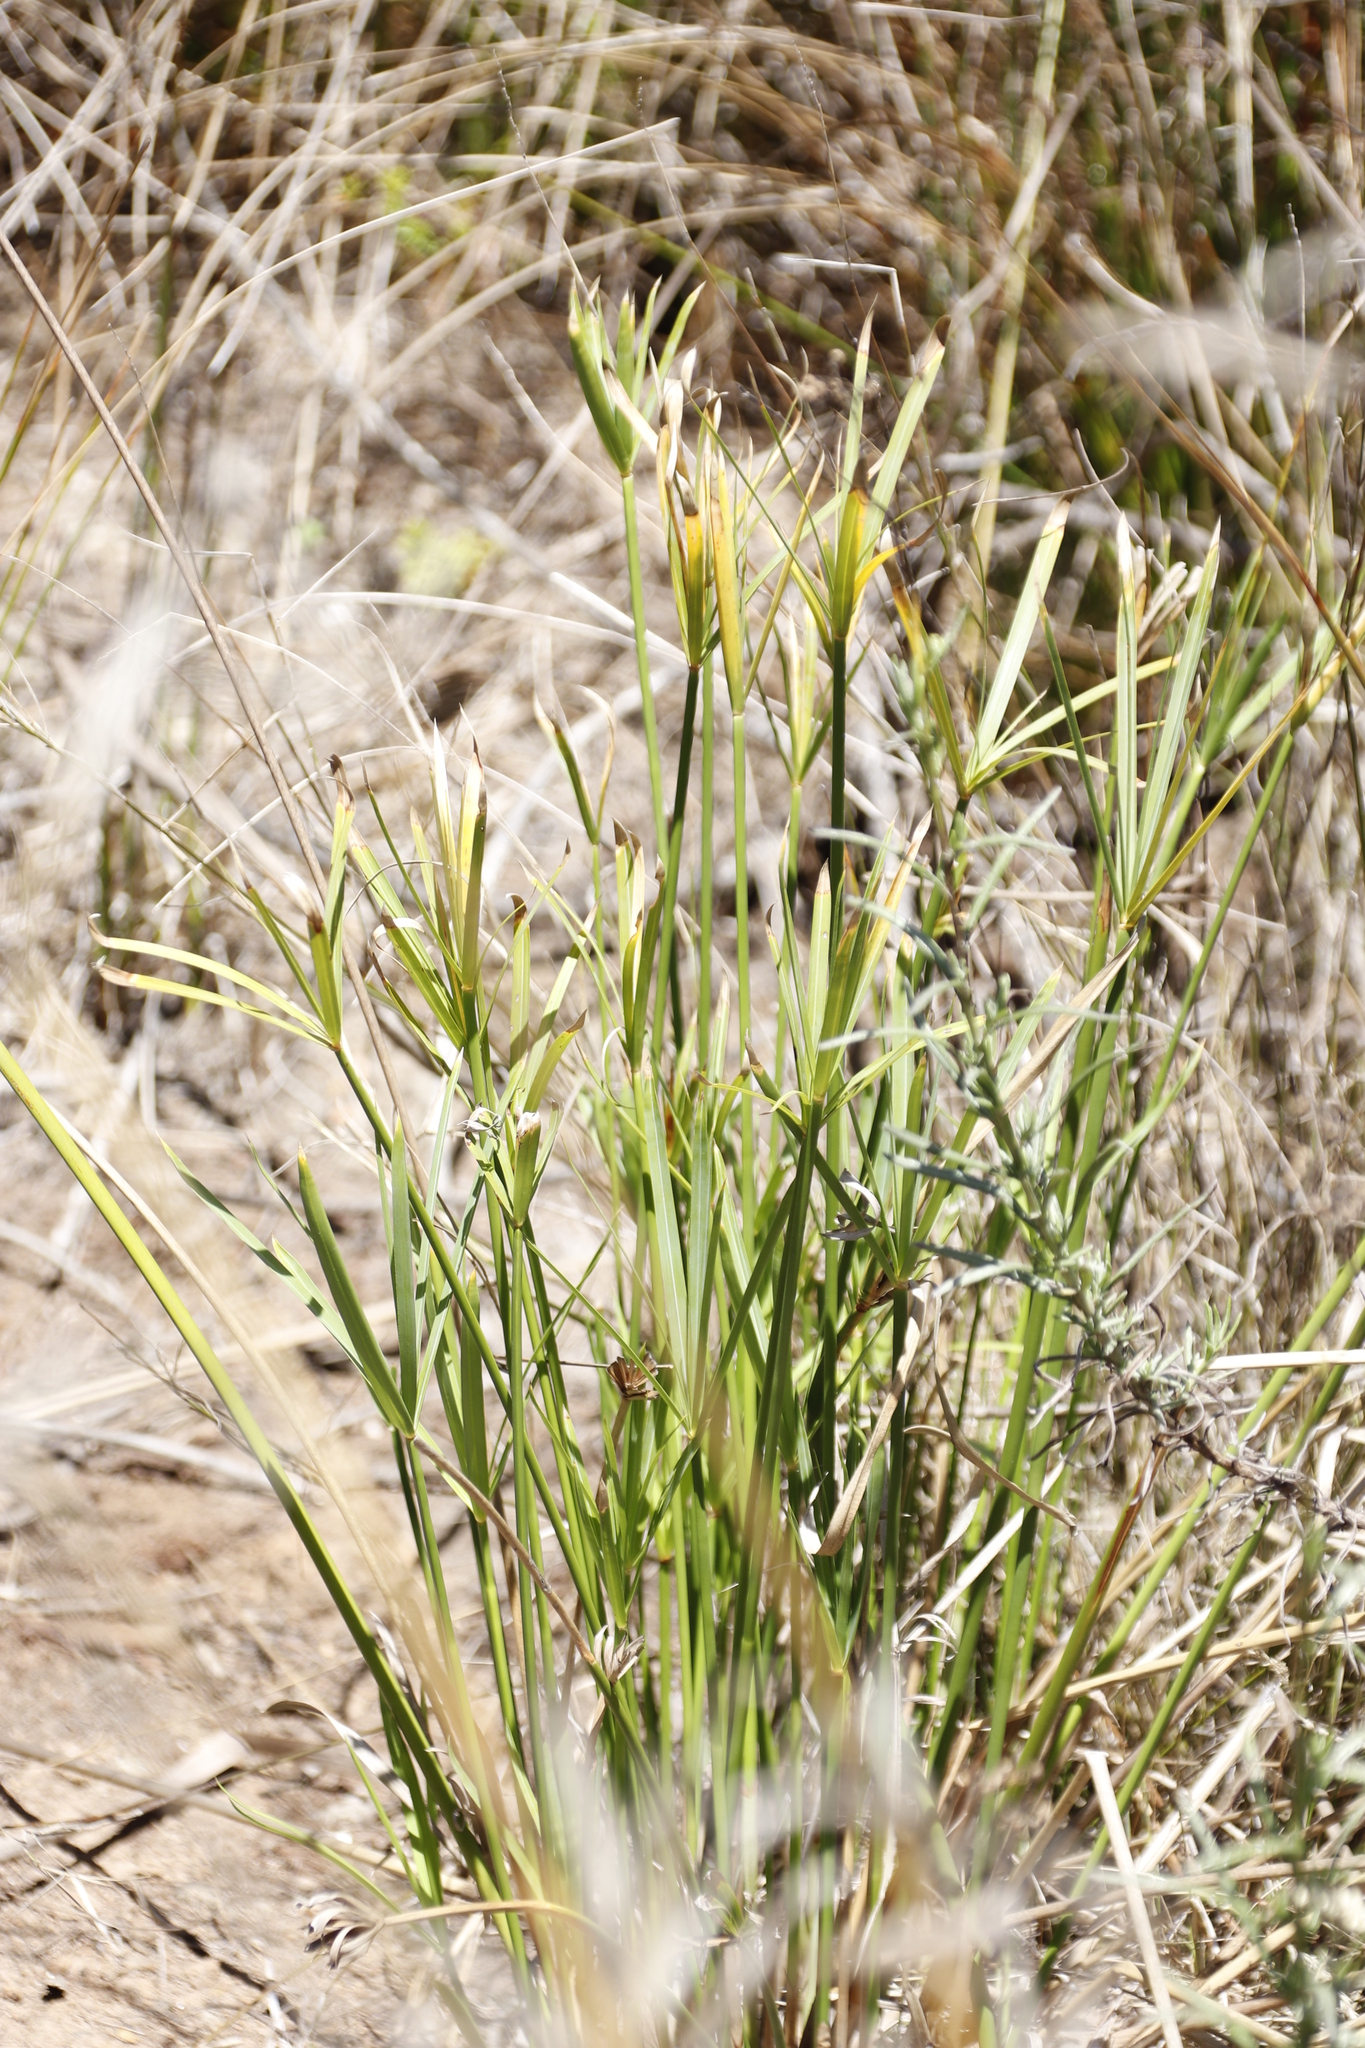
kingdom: Plantae
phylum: Tracheophyta
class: Liliopsida
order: Poales
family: Cyperaceae
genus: Cyperus
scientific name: Cyperus textilis
